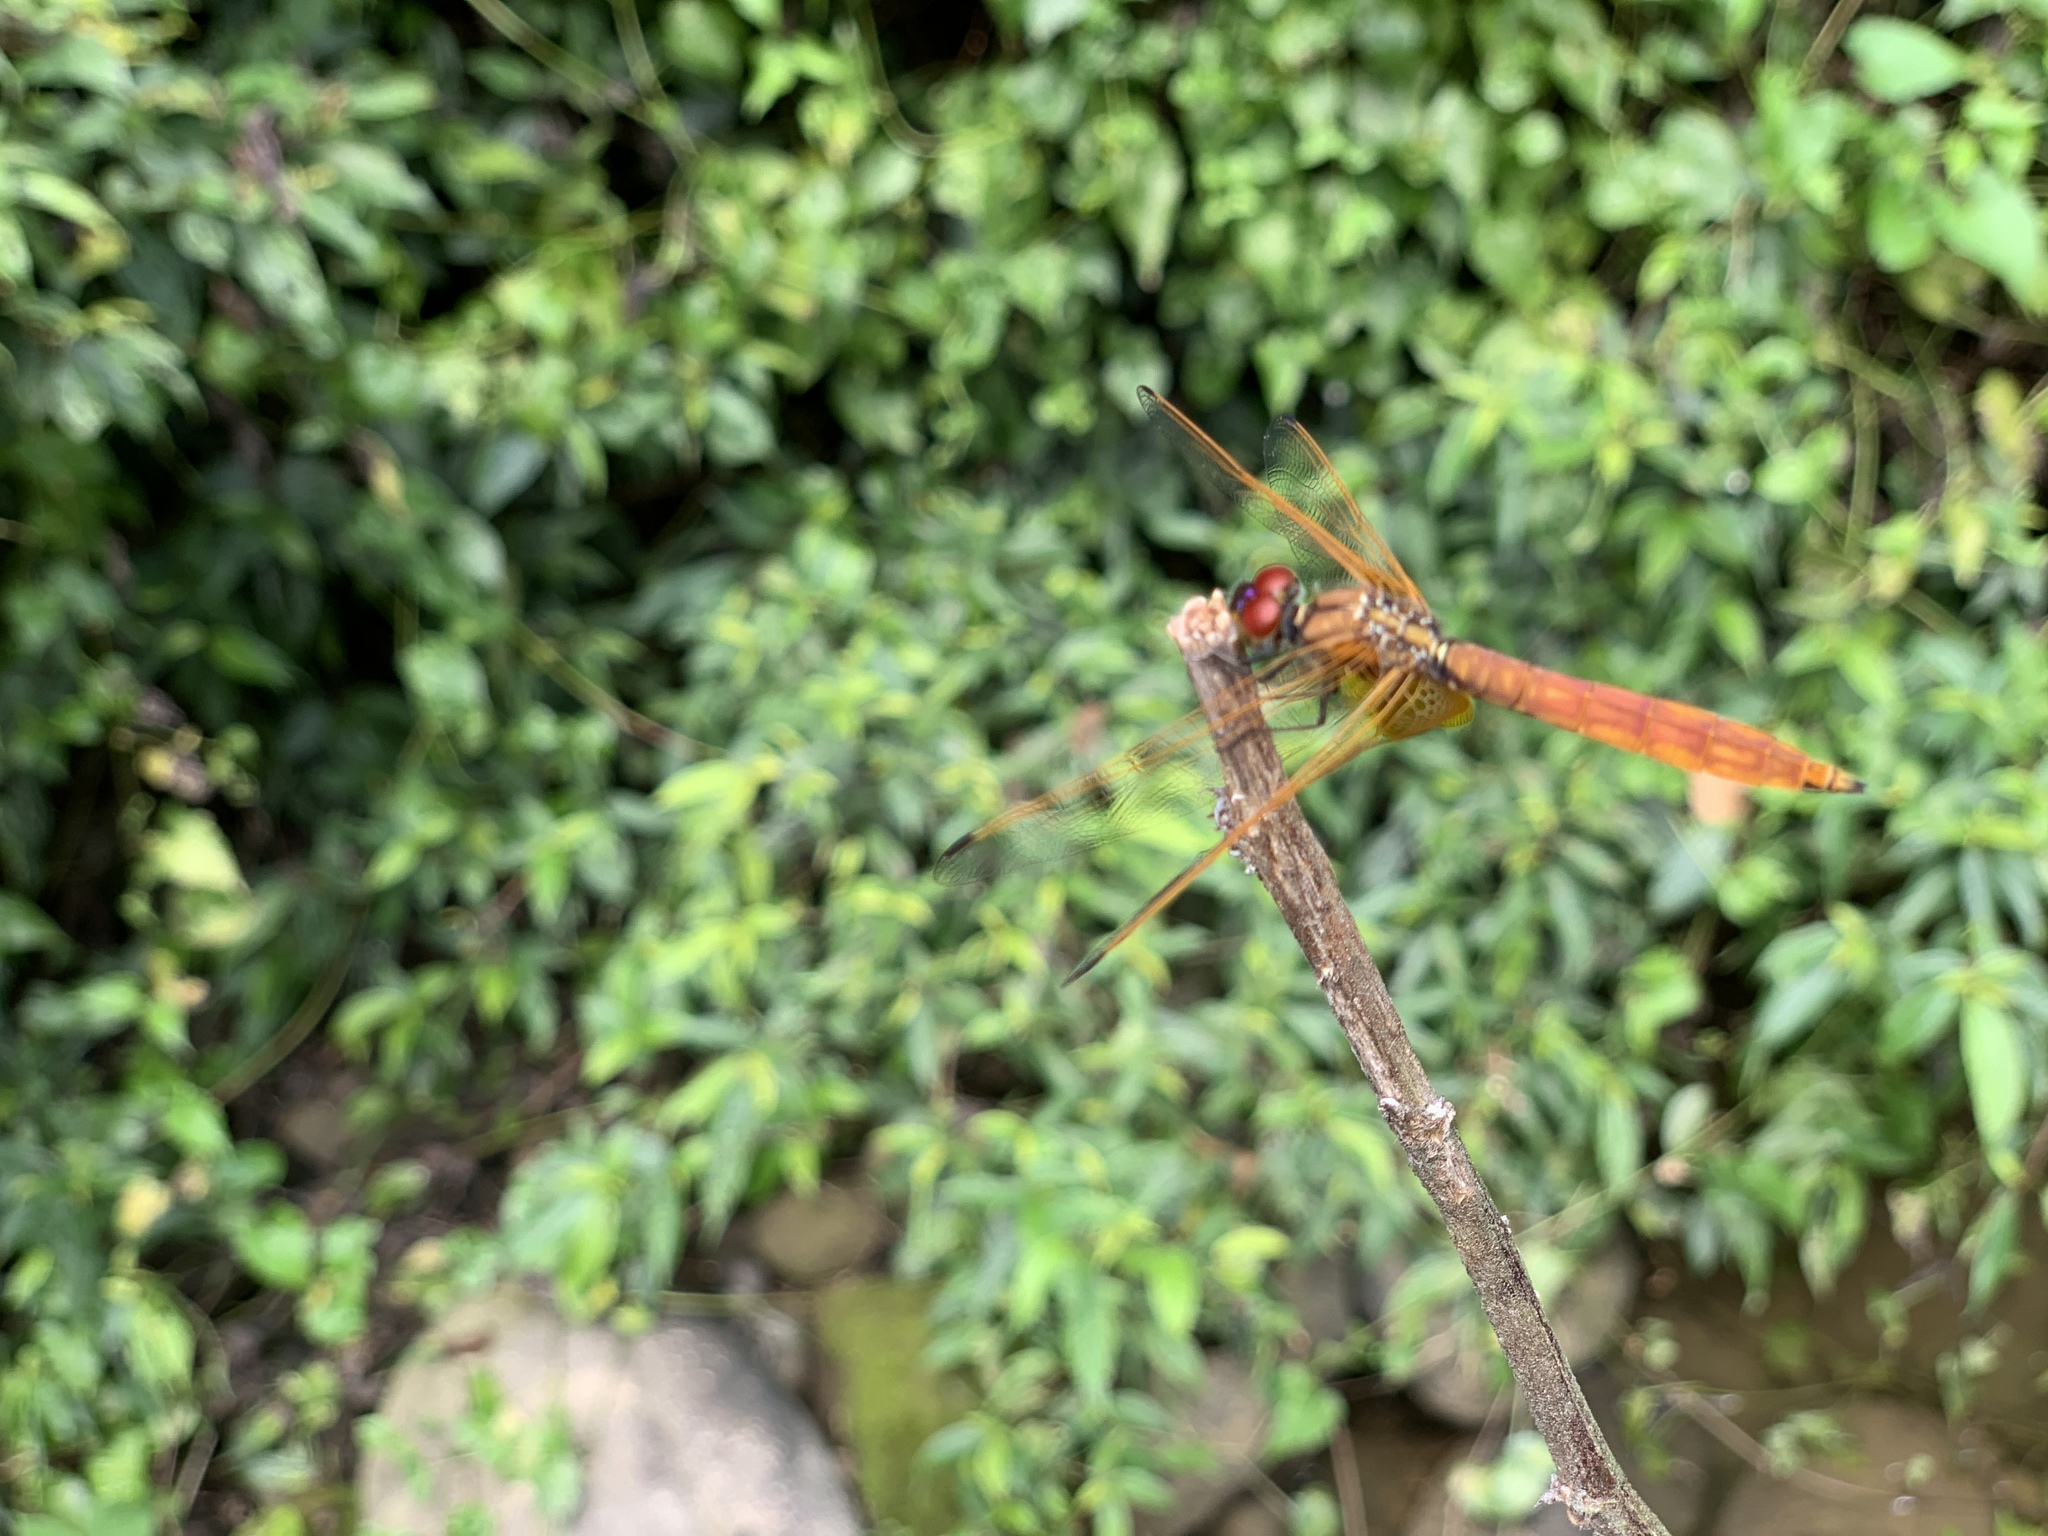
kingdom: Animalia
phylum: Arthropoda
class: Insecta
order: Odonata
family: Libellulidae
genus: Trithemis
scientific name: Trithemis aurora
